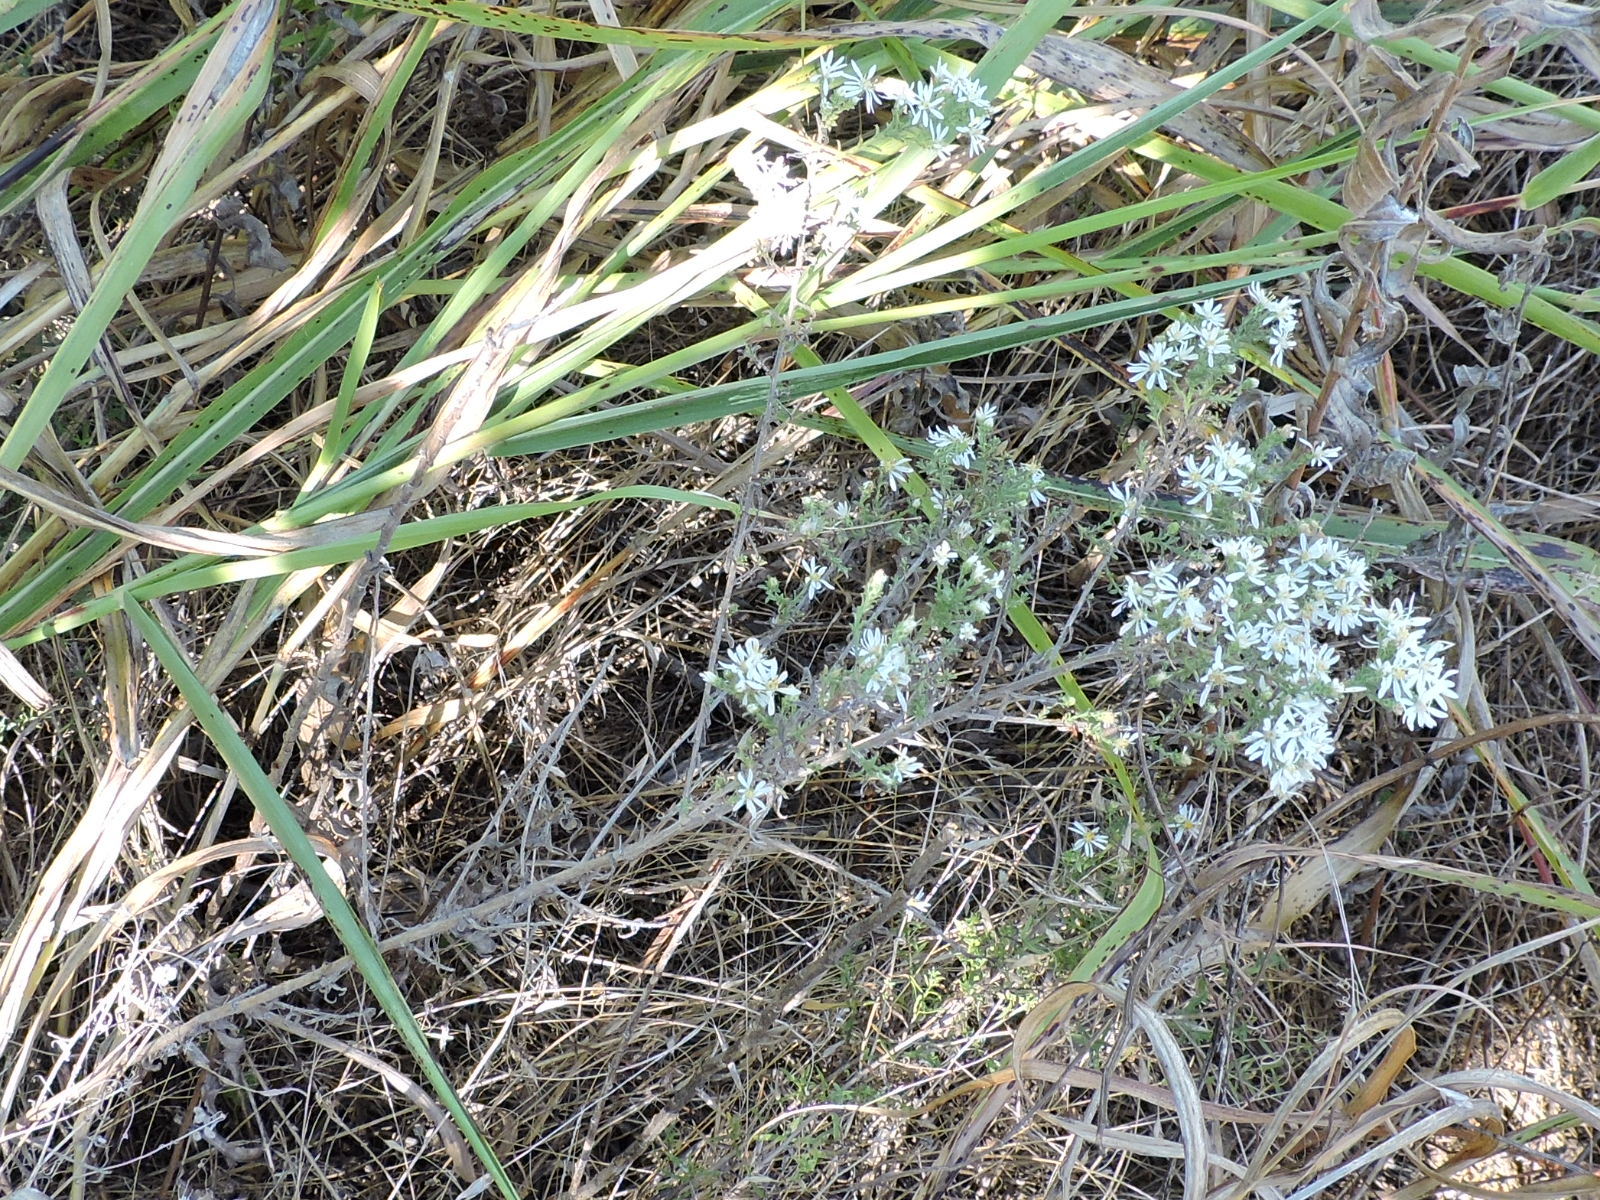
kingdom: Plantae
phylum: Tracheophyta
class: Magnoliopsida
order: Asterales
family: Asteraceae
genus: Symphyotrichum
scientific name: Symphyotrichum ericoides
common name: Heath aster
